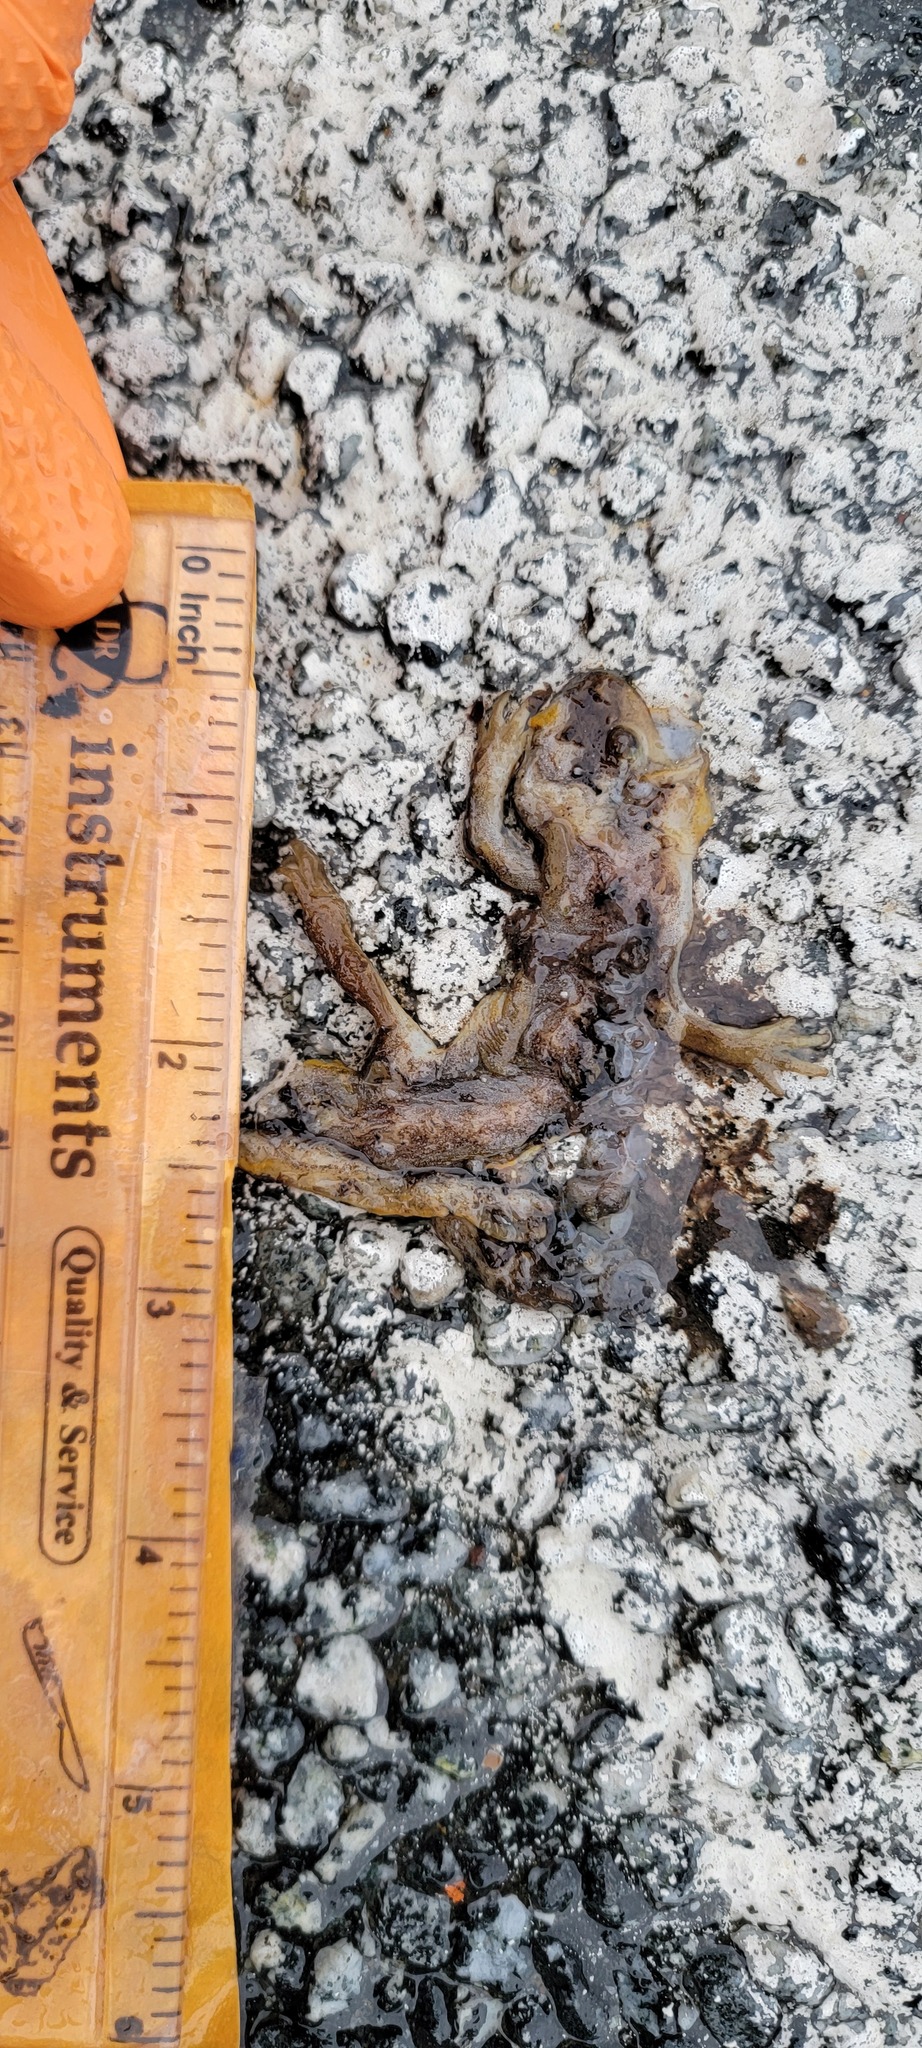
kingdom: Animalia
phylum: Chordata
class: Amphibia
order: Caudata
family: Salamandridae
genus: Taricha
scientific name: Taricha
